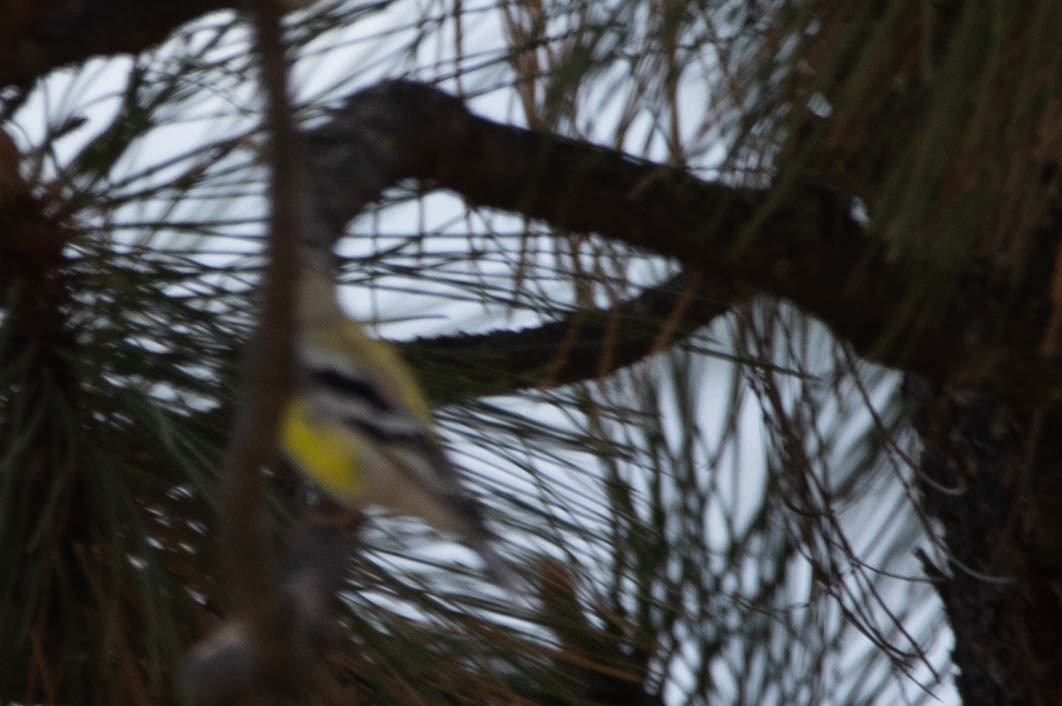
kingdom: Animalia
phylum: Chordata
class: Aves
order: Passeriformes
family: Fringillidae
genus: Spinus
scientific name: Spinus tristis
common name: American goldfinch
